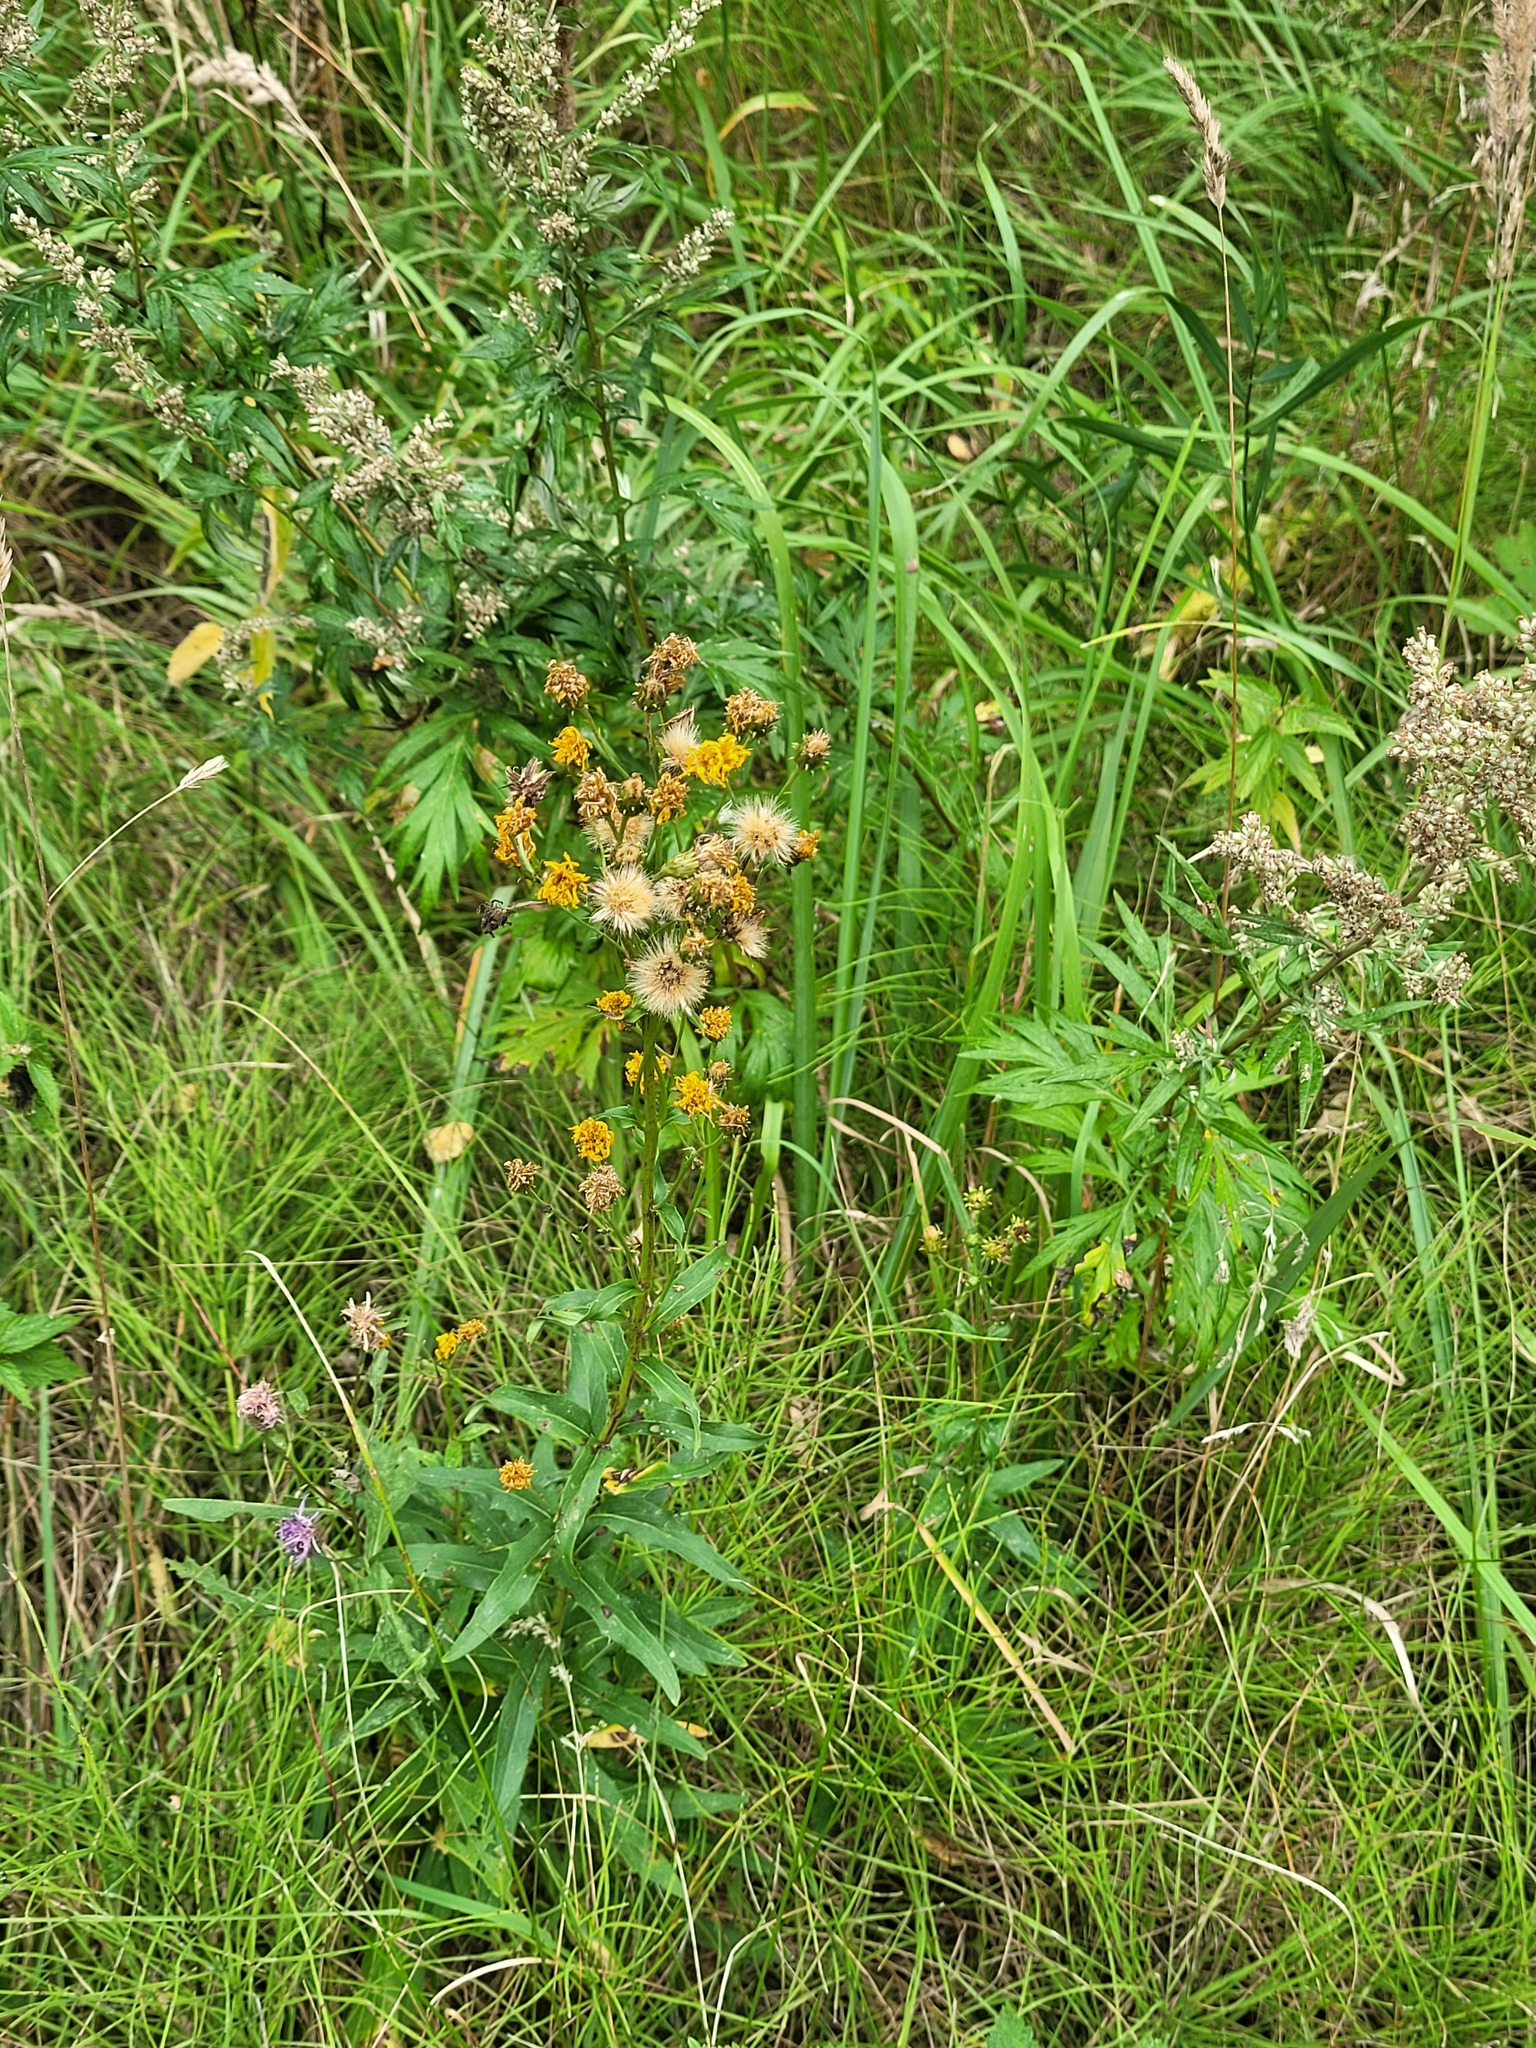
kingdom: Plantae
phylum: Tracheophyta
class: Magnoliopsida
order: Asterales
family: Asteraceae
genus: Hieracium
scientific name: Hieracium umbellatum
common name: Northern hawkweed
